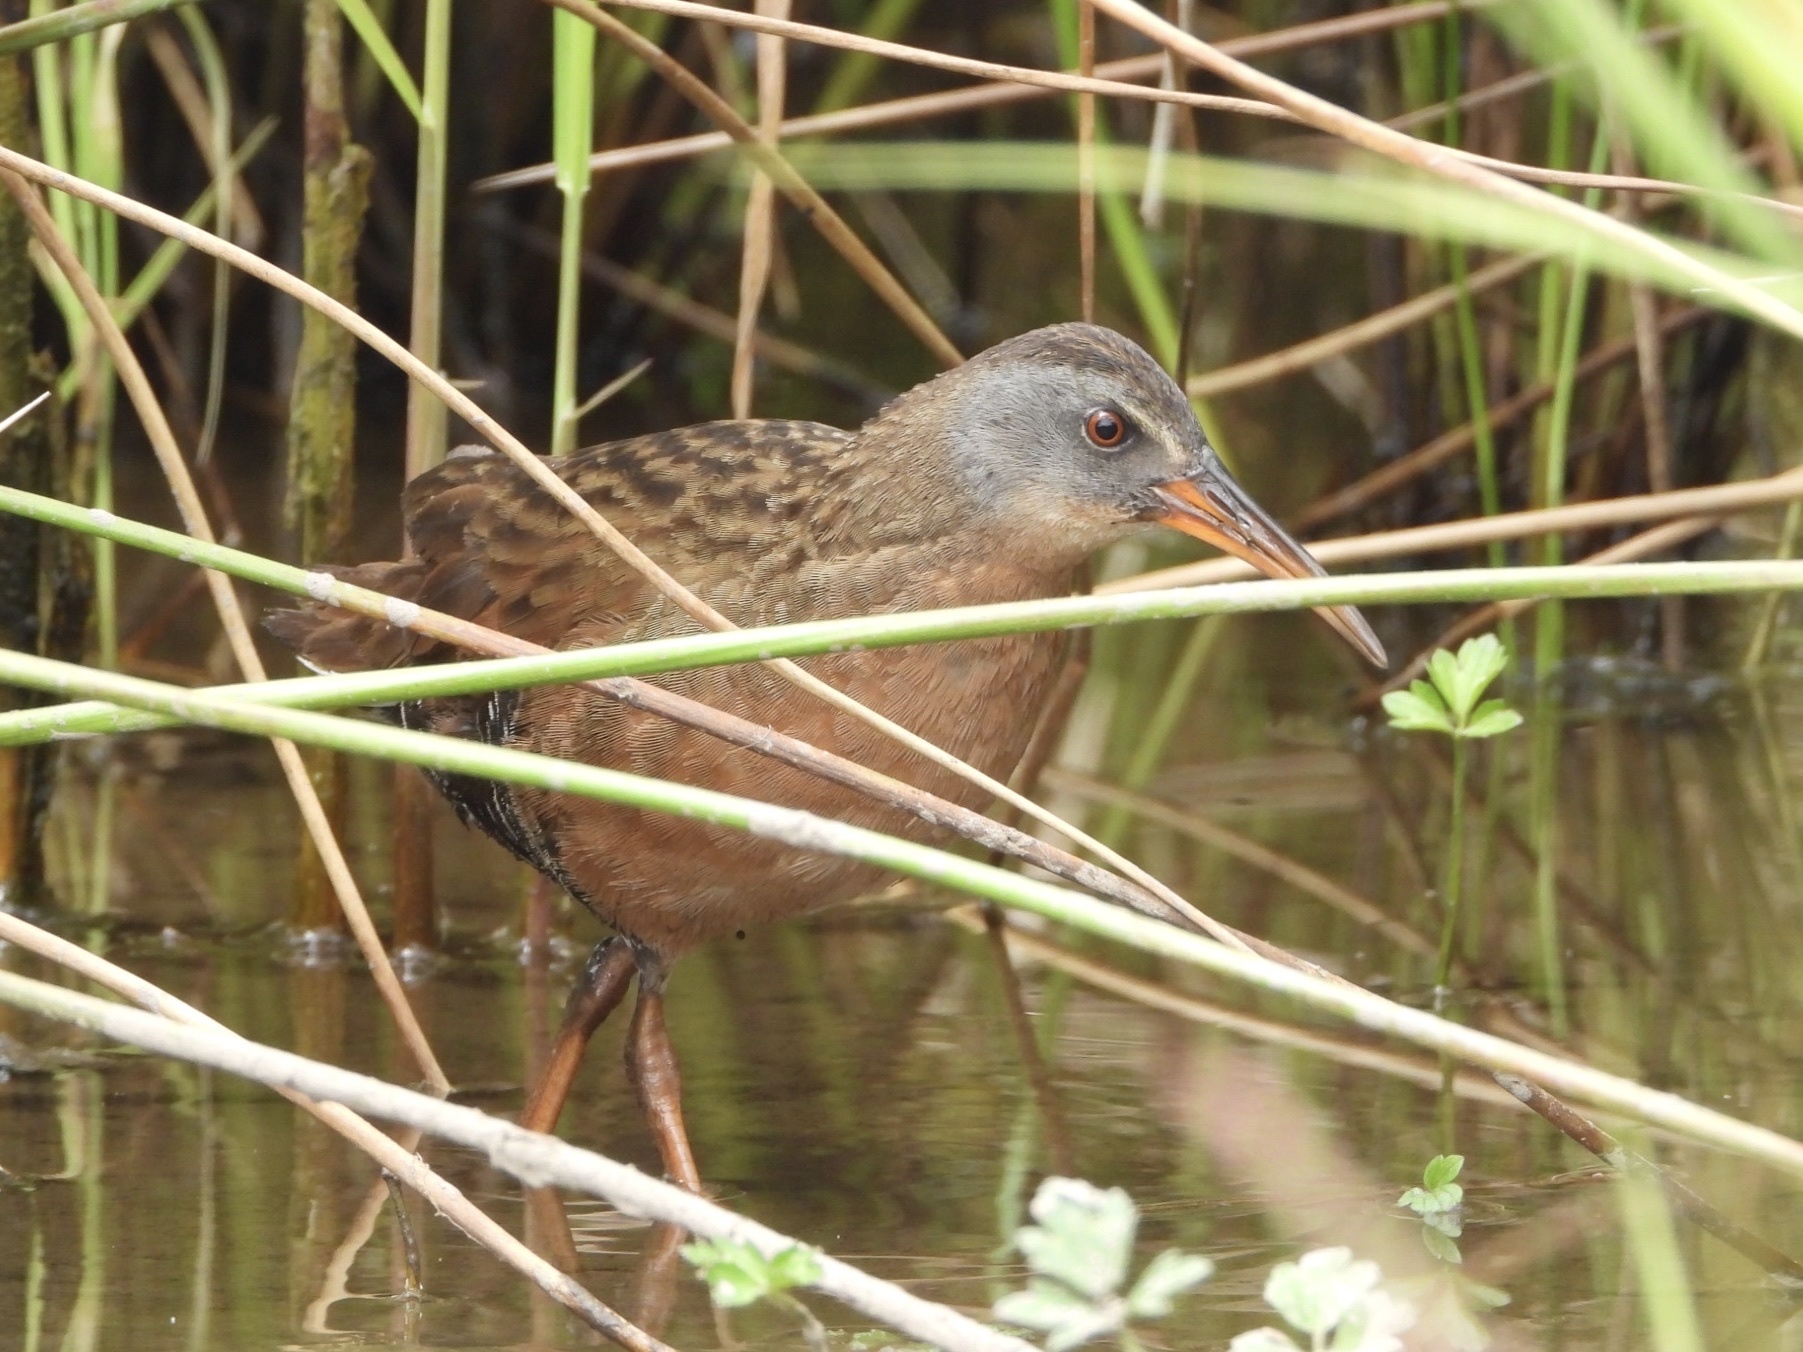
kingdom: Animalia
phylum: Chordata
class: Aves
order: Gruiformes
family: Rallidae
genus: Rallus
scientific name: Rallus limicola
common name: Virginia rail
